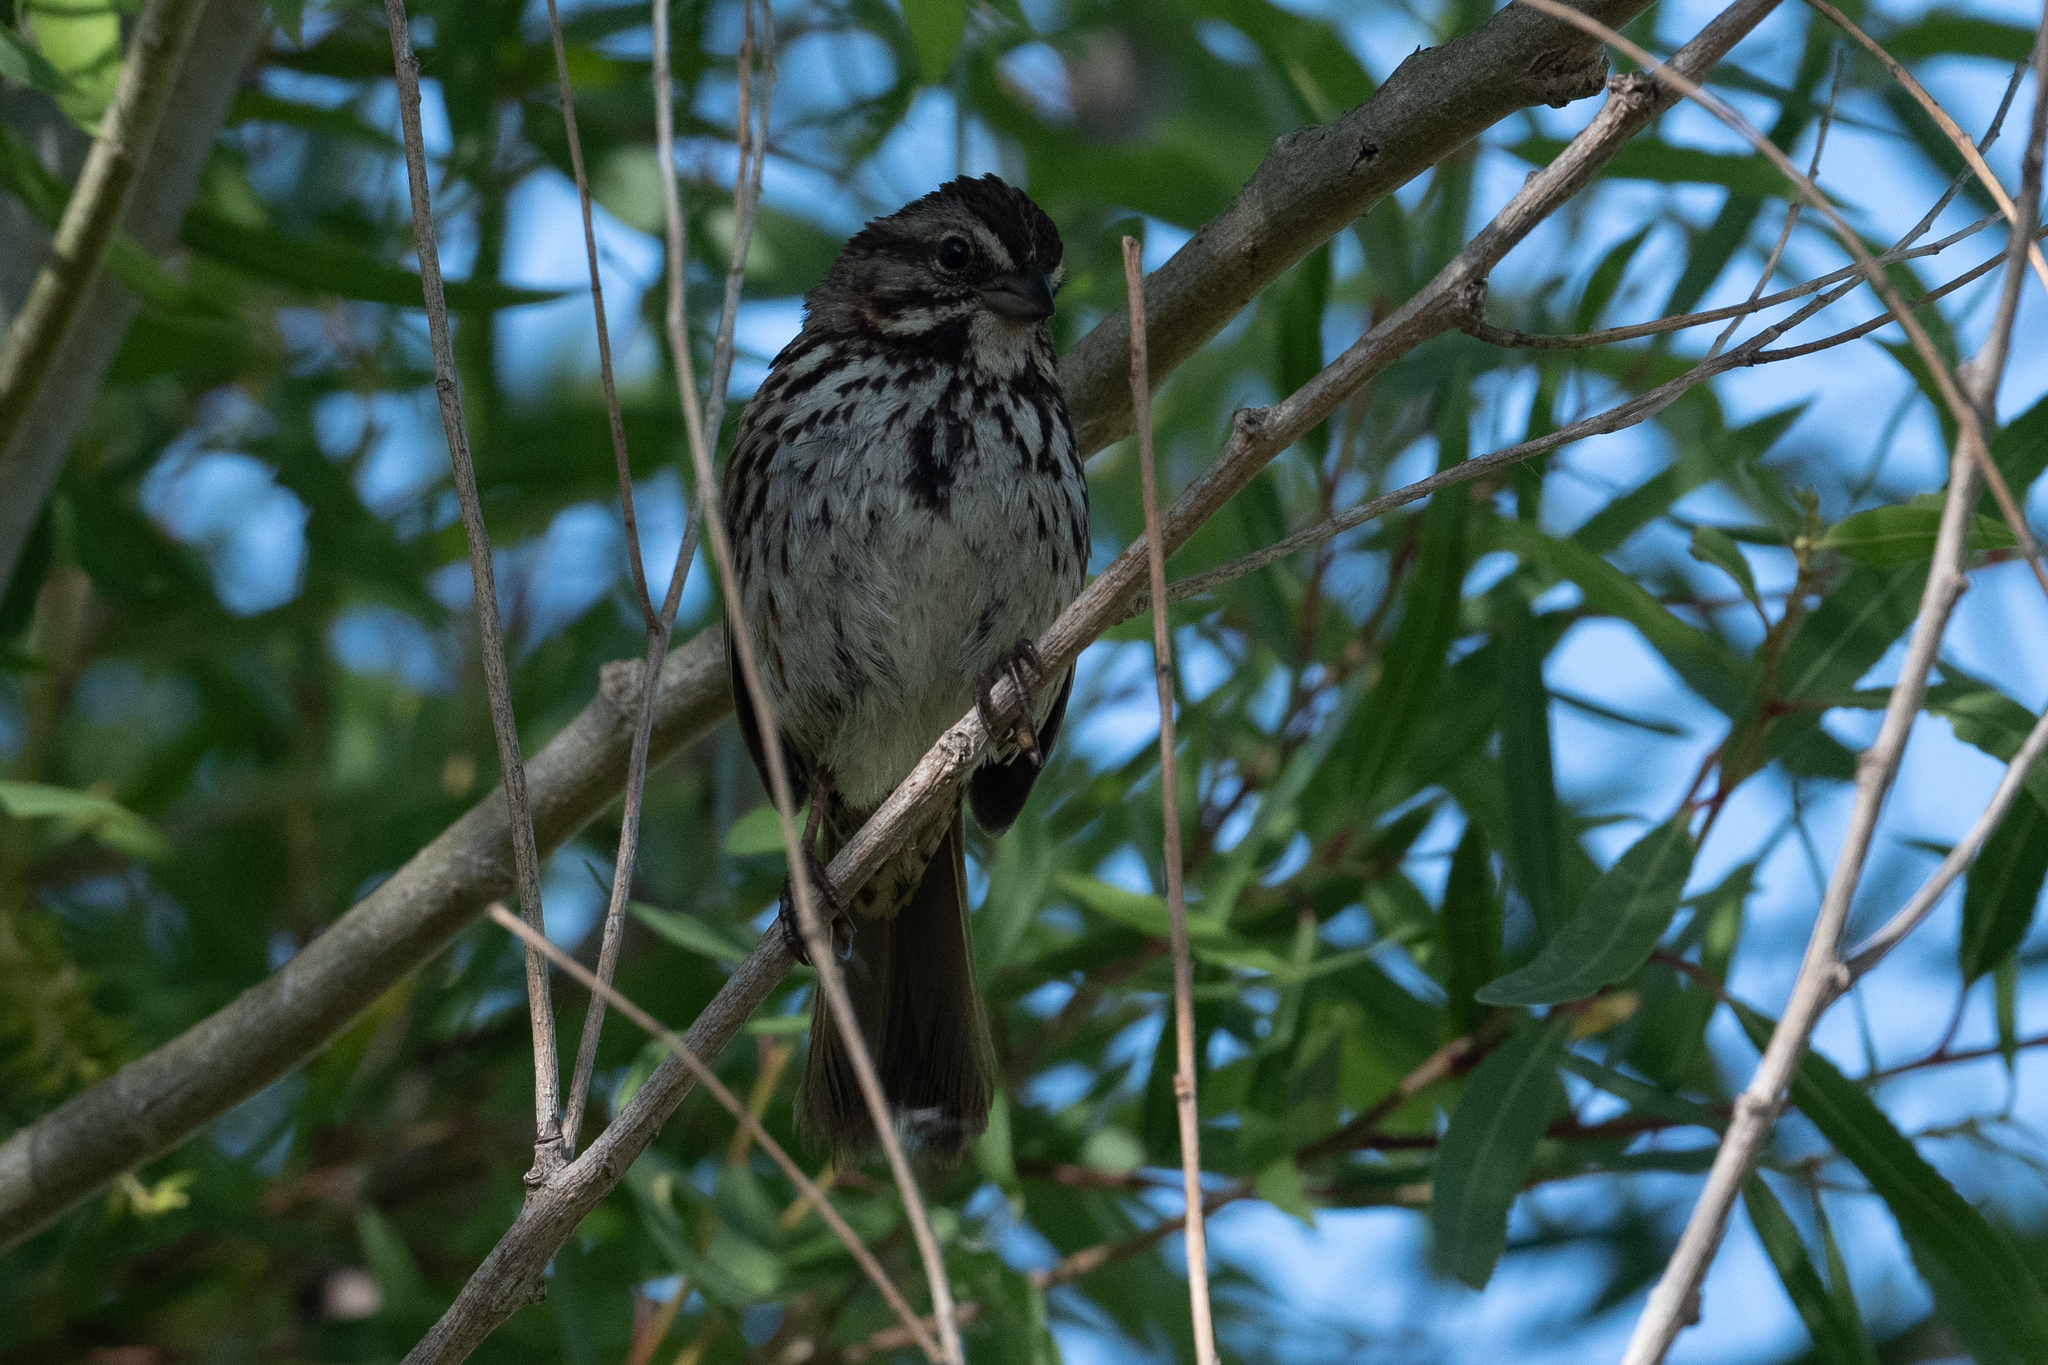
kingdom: Animalia
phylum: Chordata
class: Aves
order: Passeriformes
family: Passerellidae
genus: Melospiza
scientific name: Melospiza melodia
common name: Song sparrow
